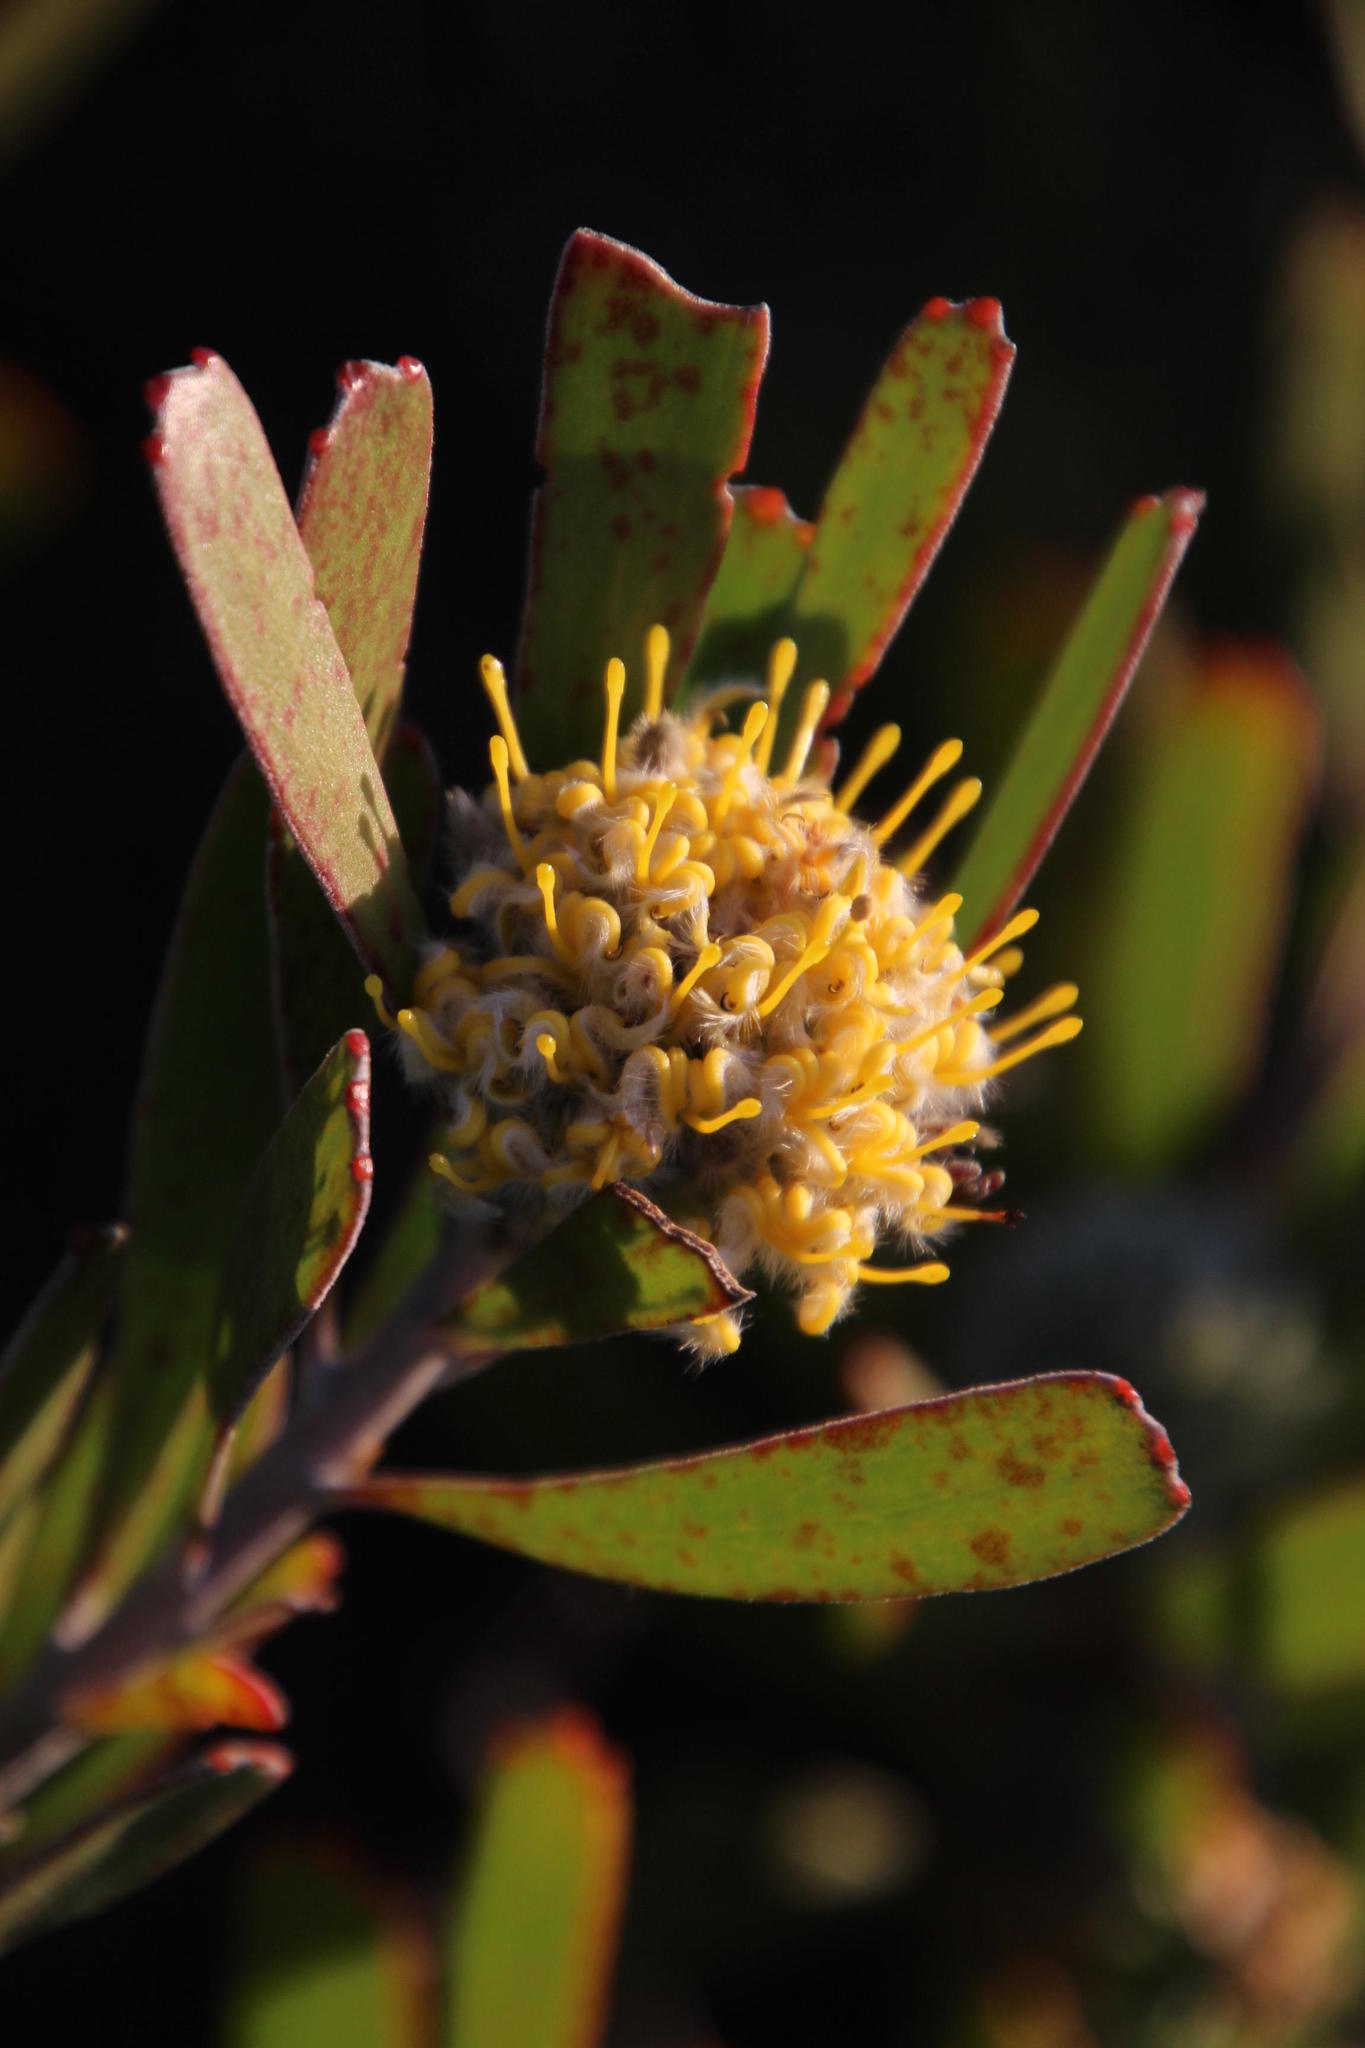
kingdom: Plantae
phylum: Tracheophyta
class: Magnoliopsida
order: Proteales
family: Proteaceae
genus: Leucospermum
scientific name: Leucospermum truncatum
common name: Limestone pincushion
